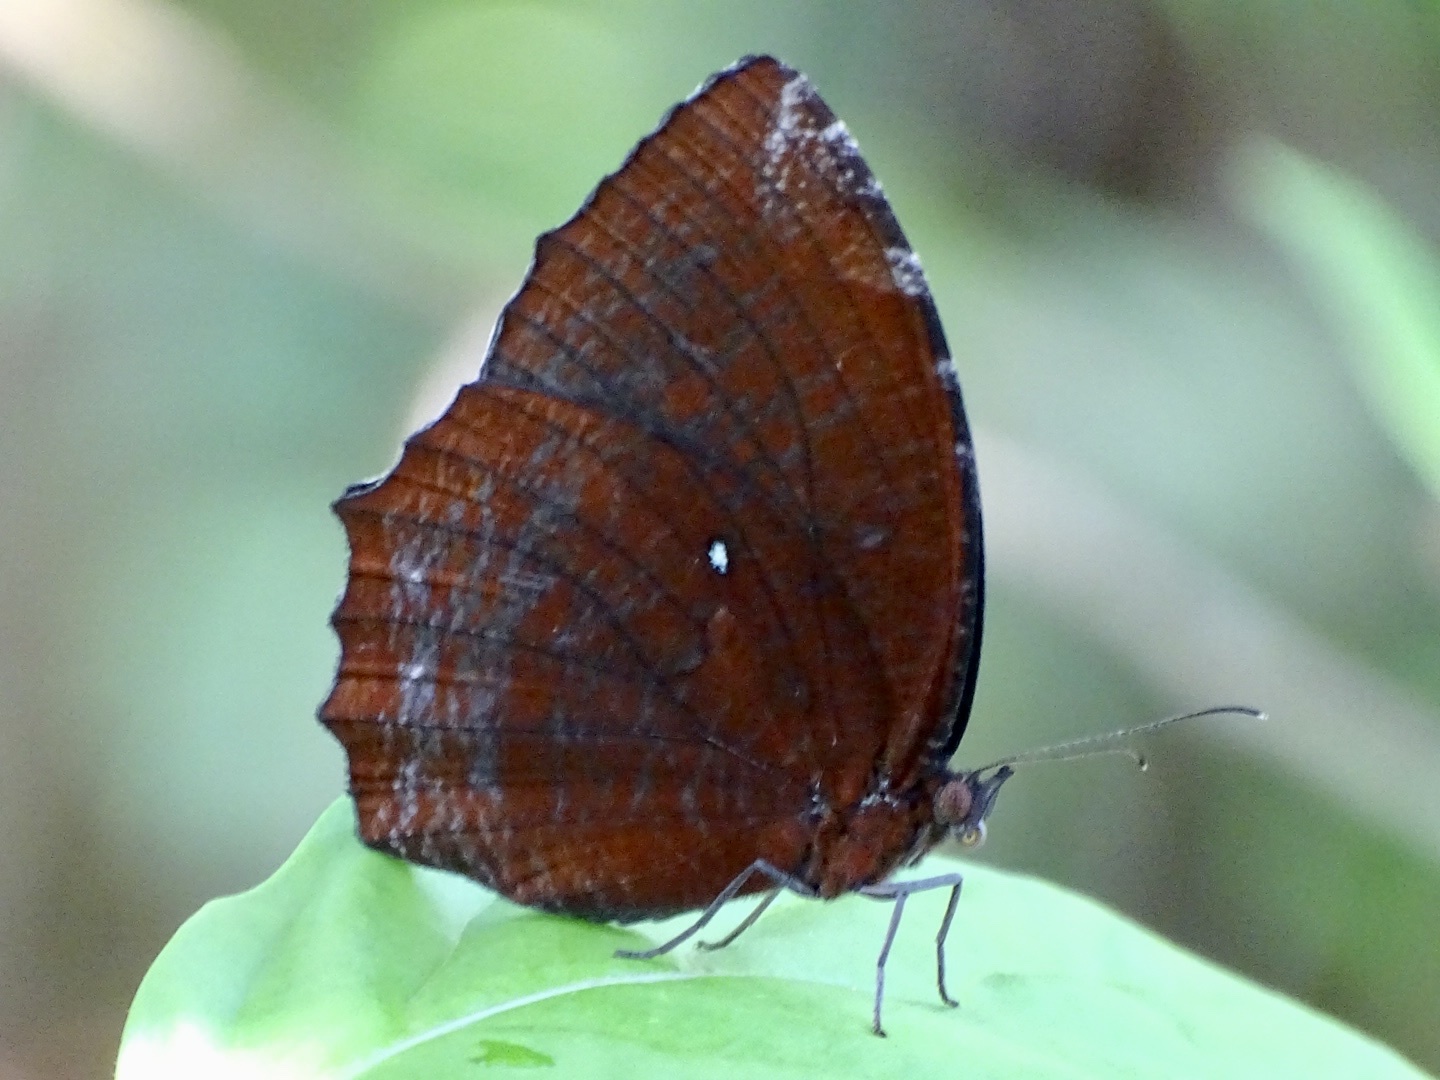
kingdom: Animalia
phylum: Arthropoda
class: Insecta
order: Lepidoptera
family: Nymphalidae
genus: Elymnias
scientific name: Elymnias hypermnestra
